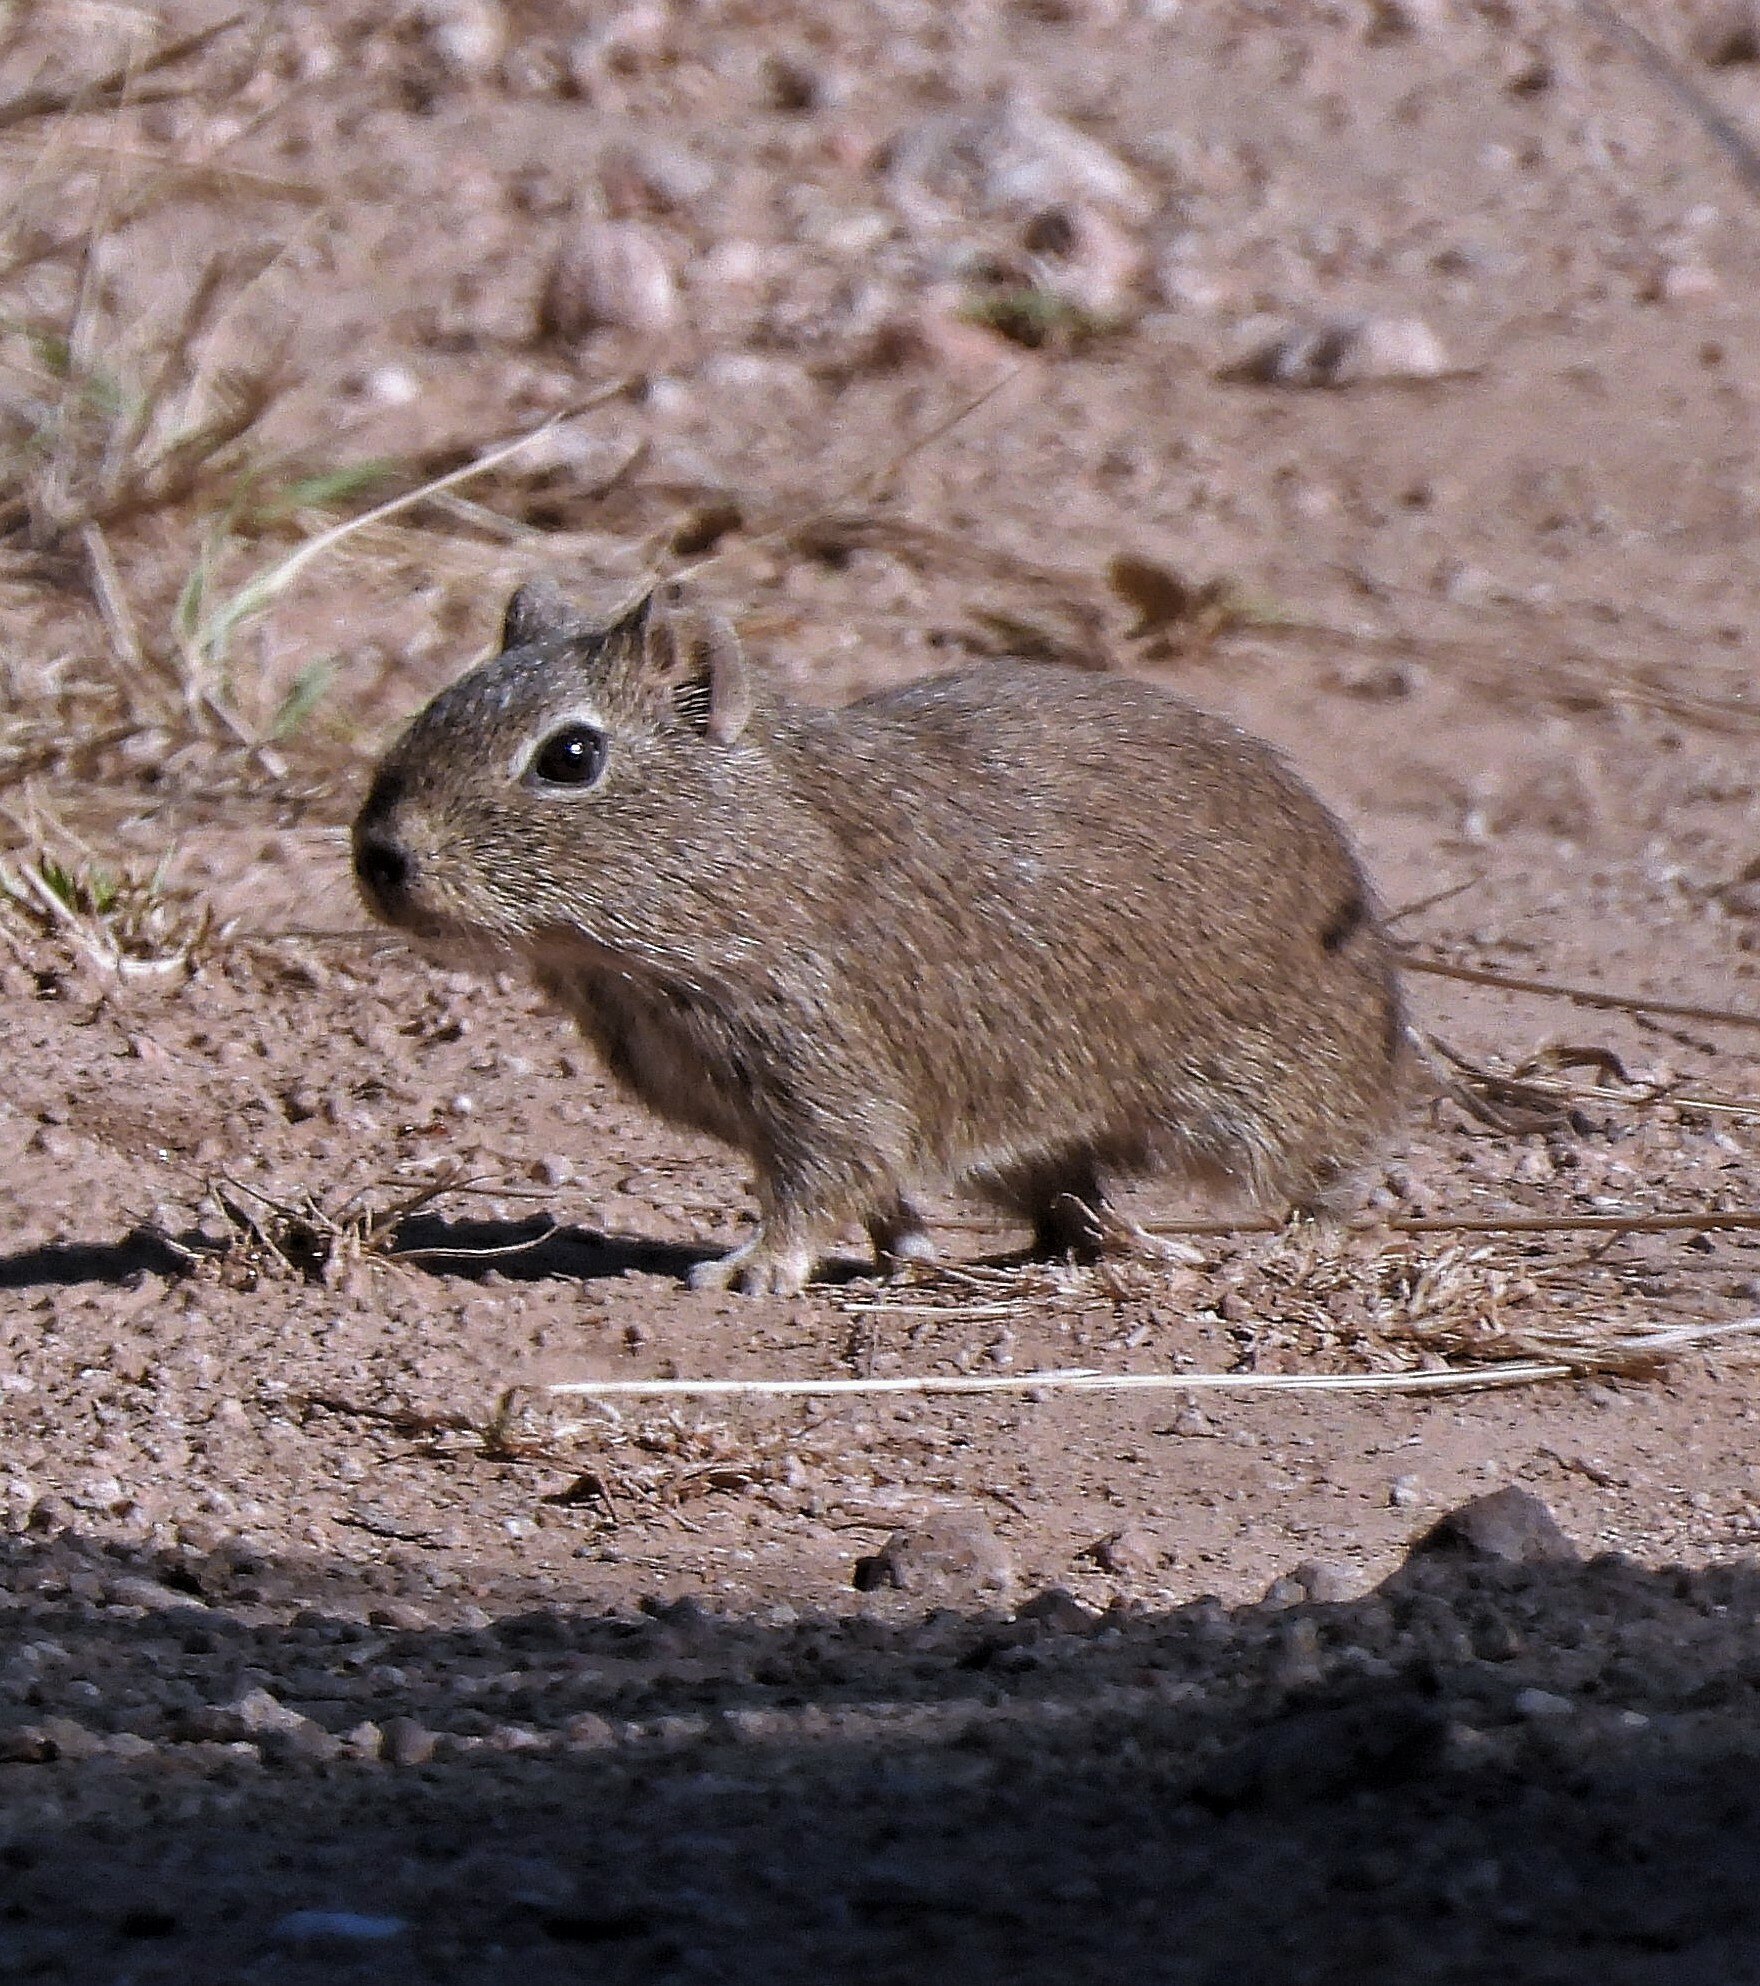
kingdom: Animalia
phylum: Chordata
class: Mammalia
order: Rodentia
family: Caviidae
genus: Microcavia
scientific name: Microcavia
